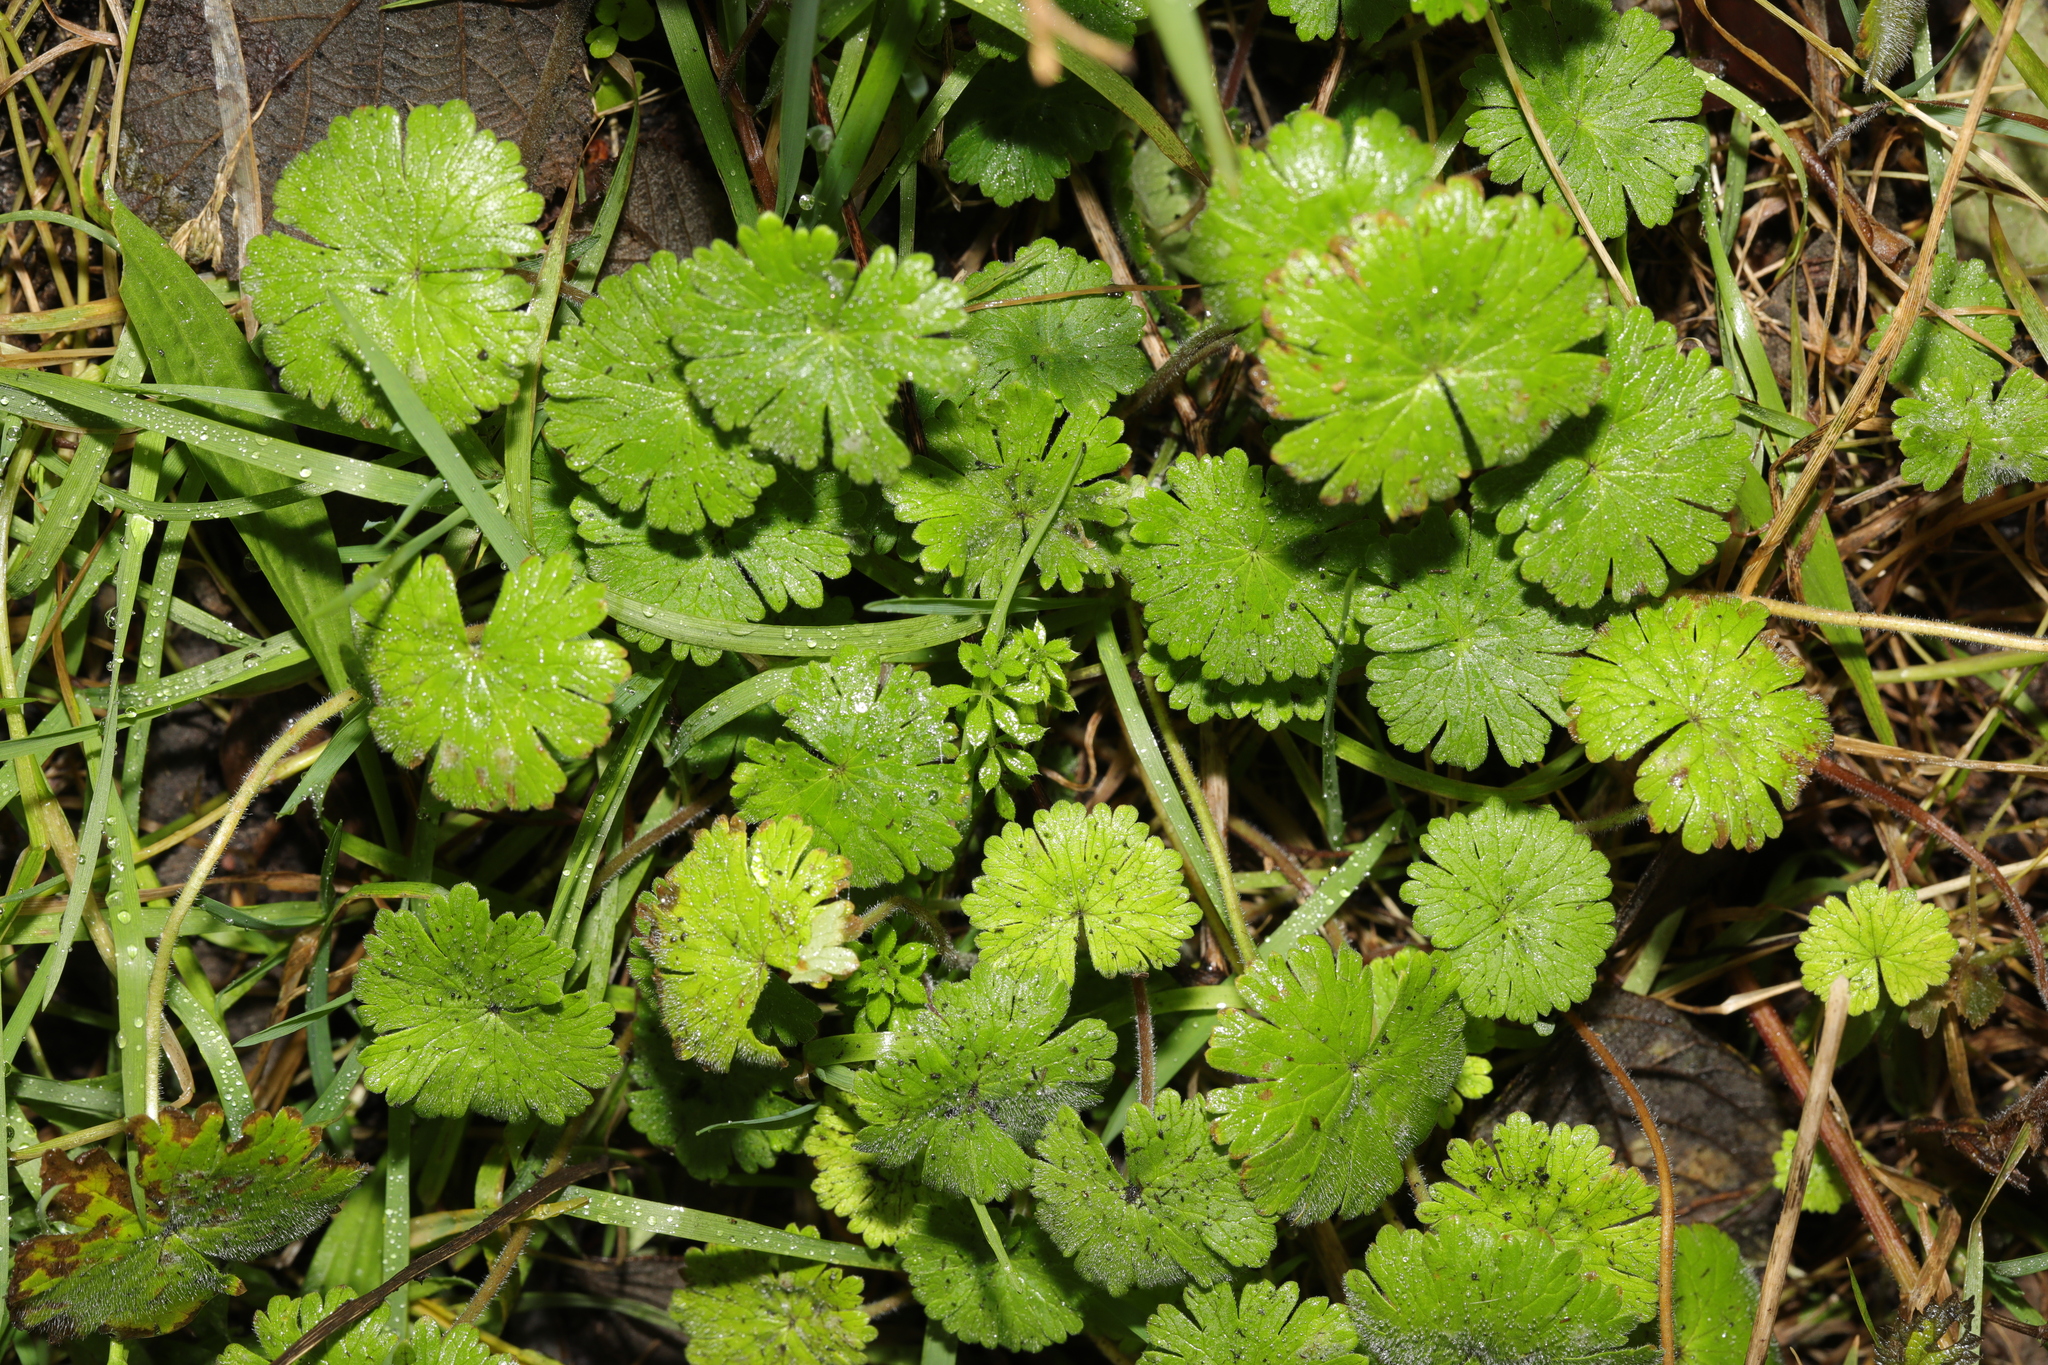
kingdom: Plantae
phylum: Tracheophyta
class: Magnoliopsida
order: Geraniales
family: Geraniaceae
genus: Geranium
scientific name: Geranium molle
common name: Dove's-foot crane's-bill
